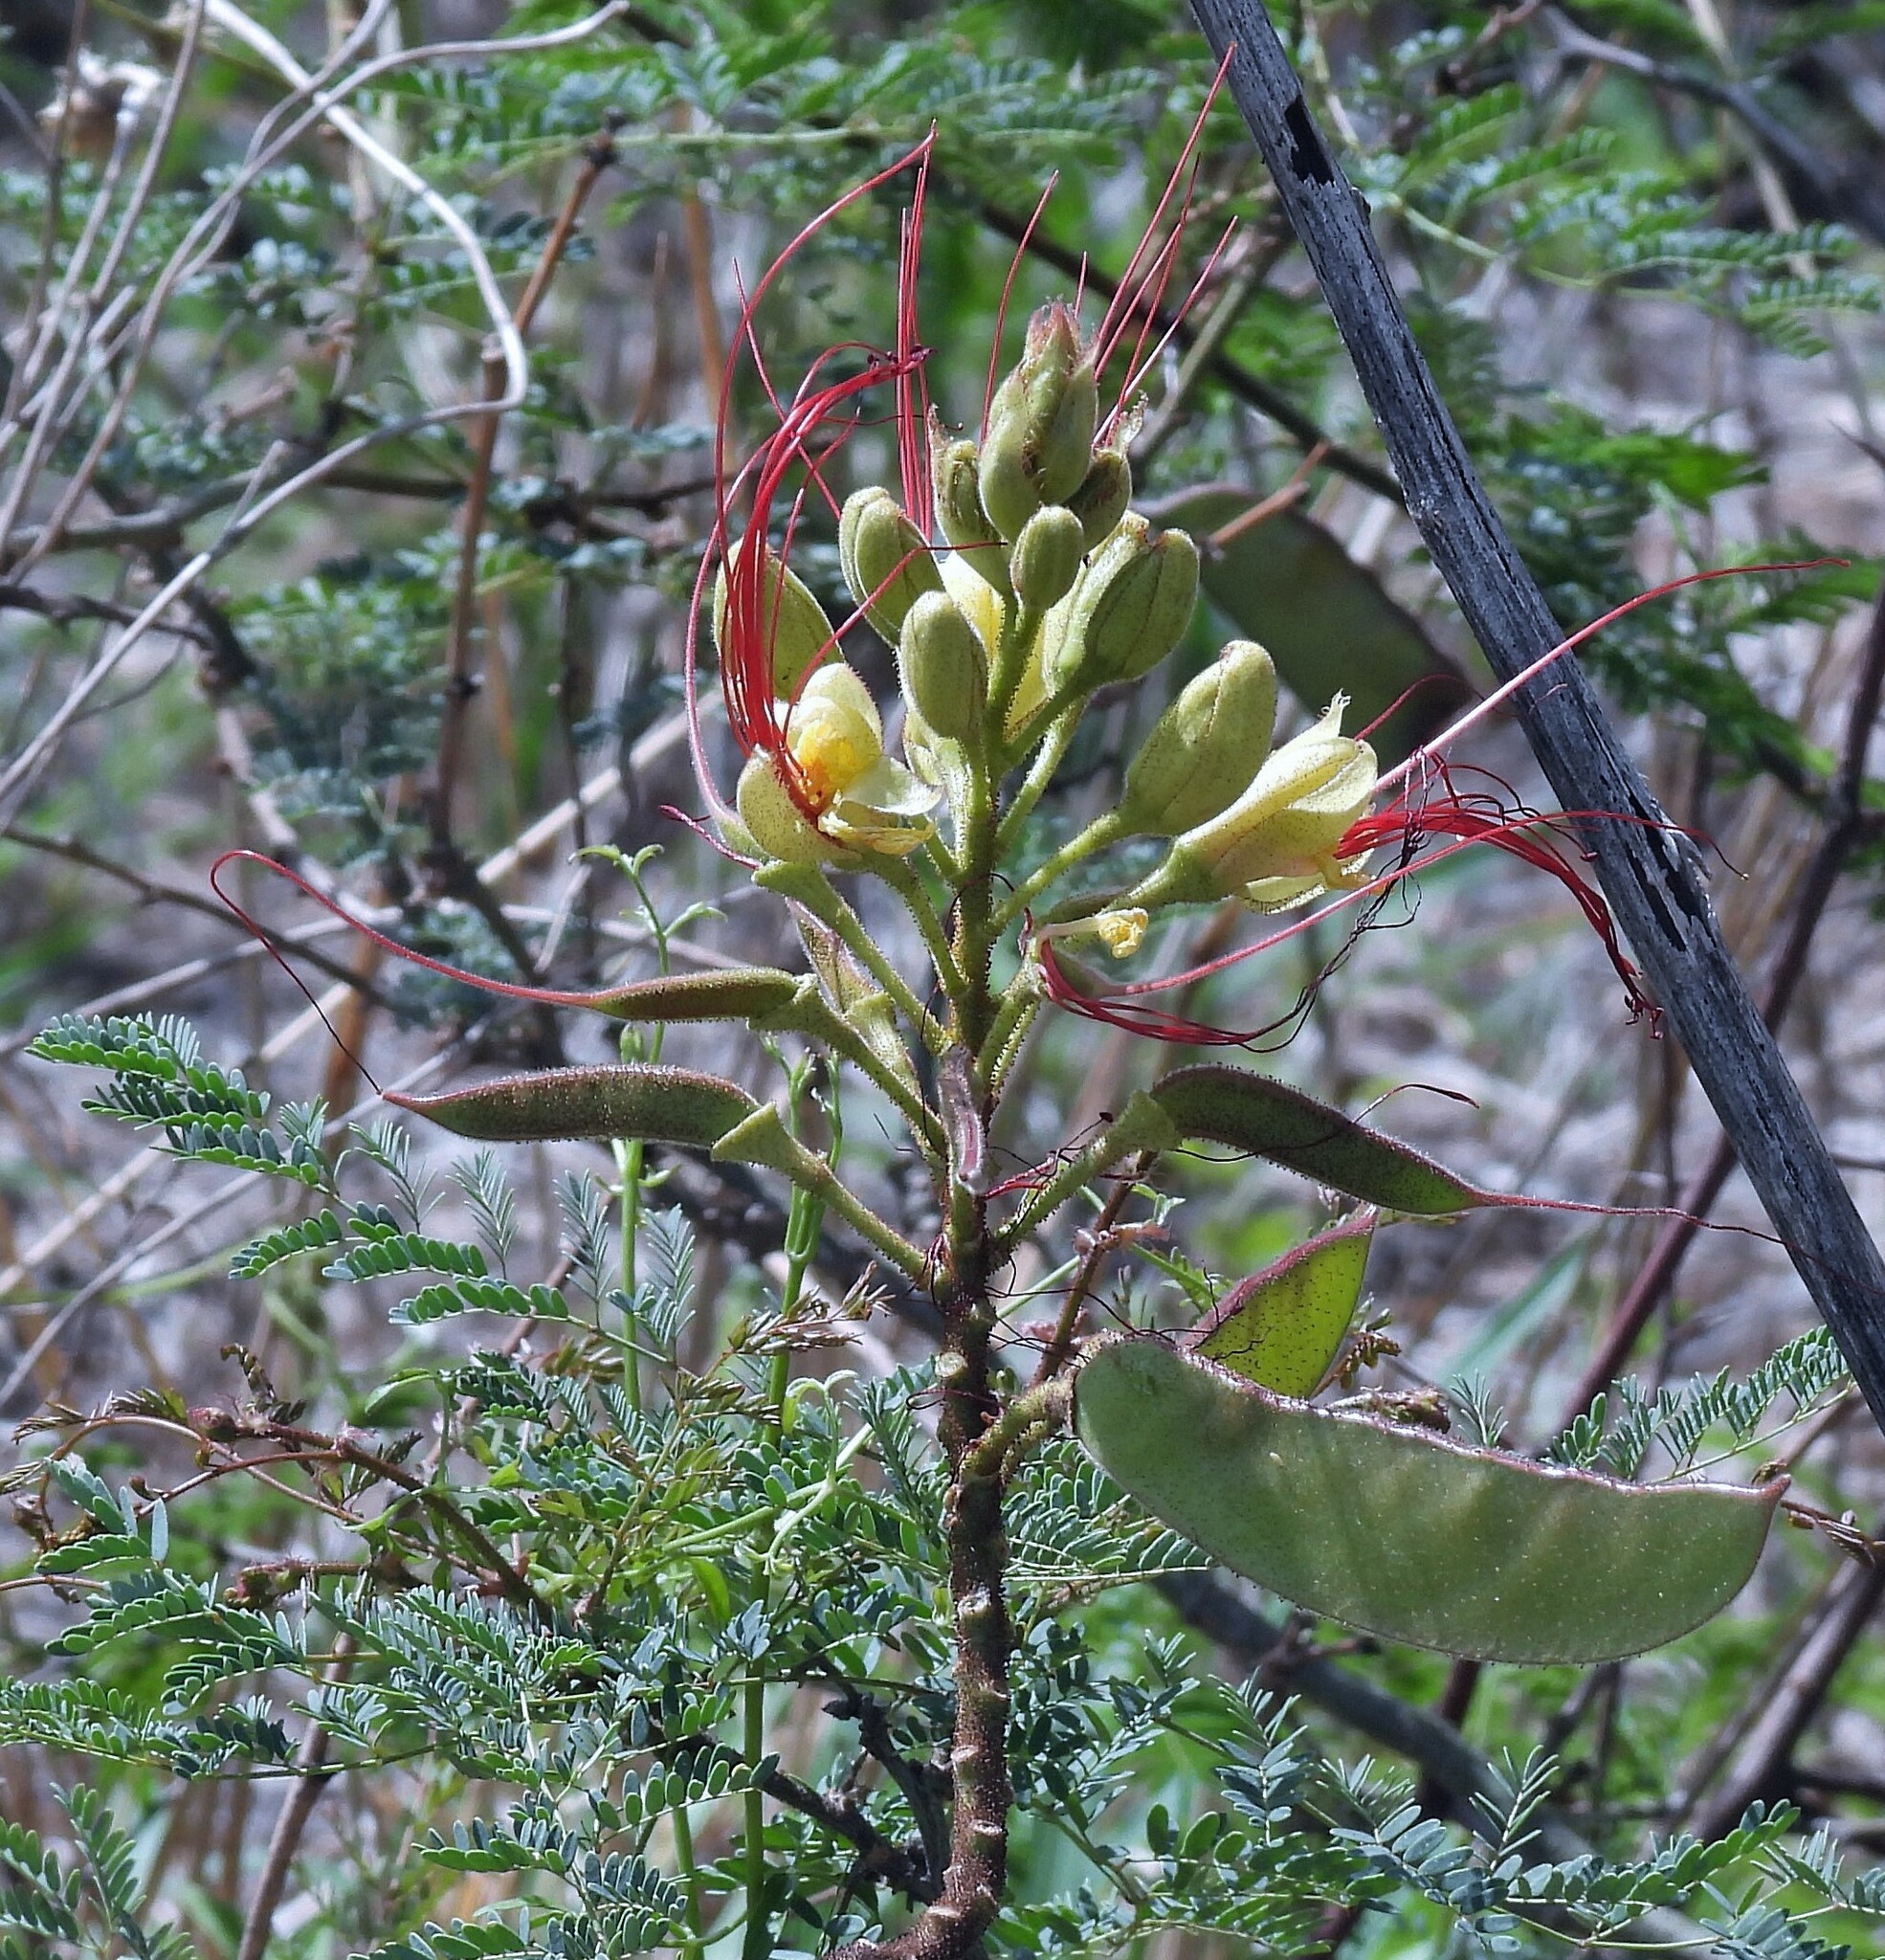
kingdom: Plantae
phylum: Tracheophyta
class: Magnoliopsida
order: Fabales
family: Fabaceae
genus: Erythrostemon
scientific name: Erythrostemon gilliesii
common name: Bird-of-paradise shrub
